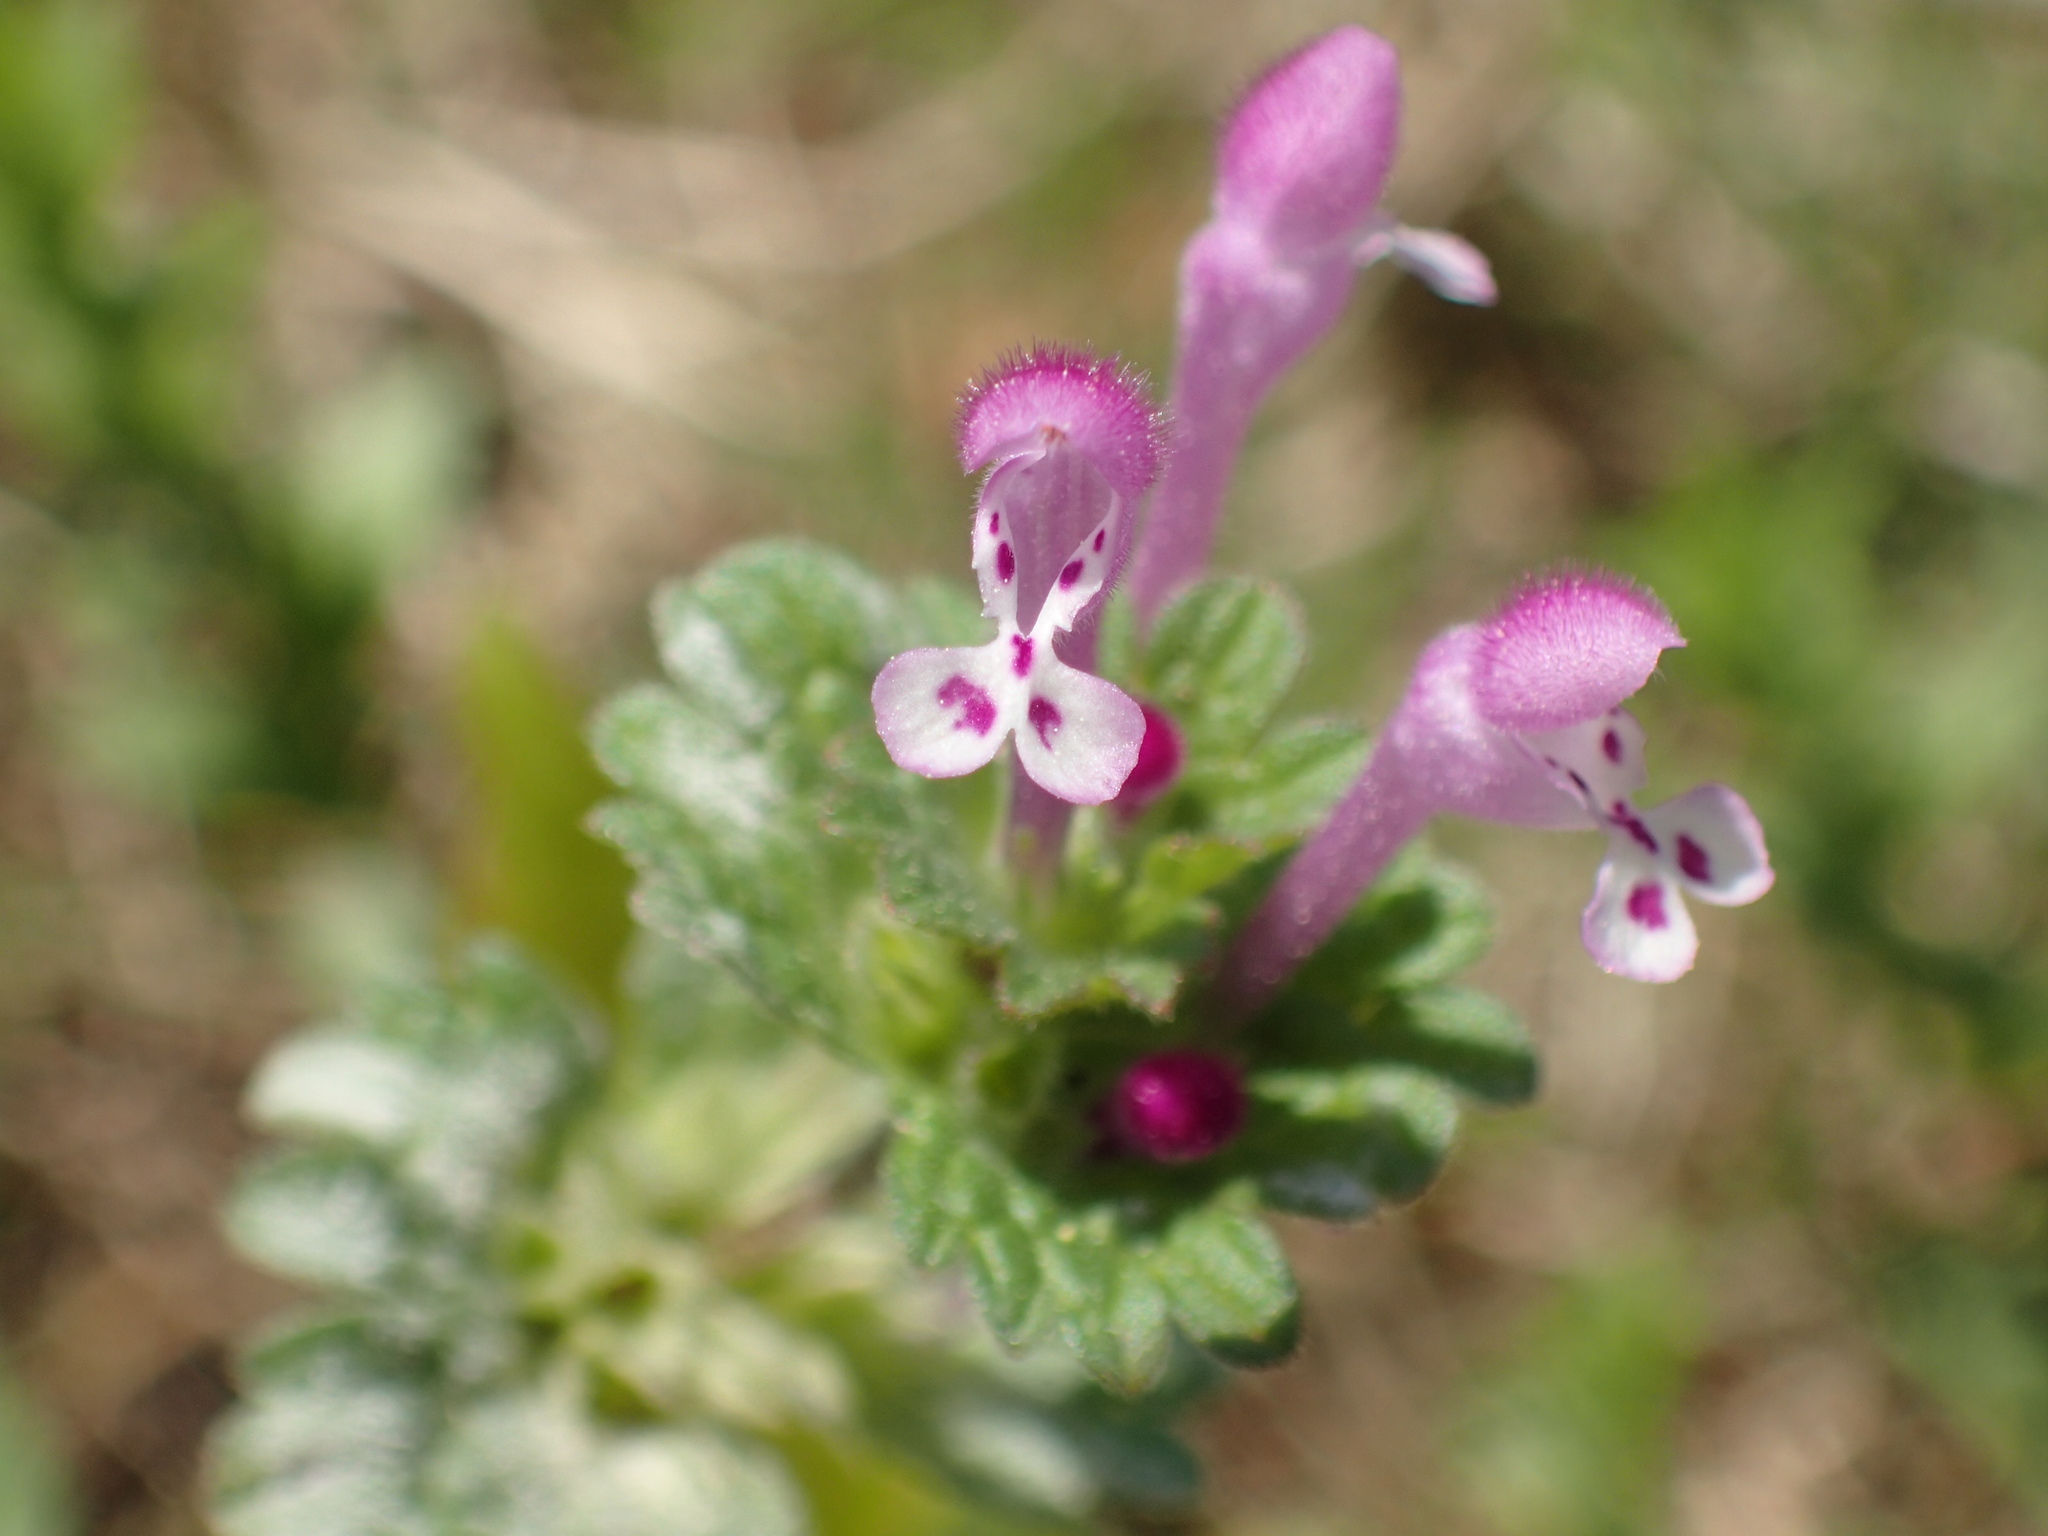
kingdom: Plantae
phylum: Tracheophyta
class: Magnoliopsida
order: Lamiales
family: Lamiaceae
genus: Lamium
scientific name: Lamium amplexicaule
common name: Henbit dead-nettle
